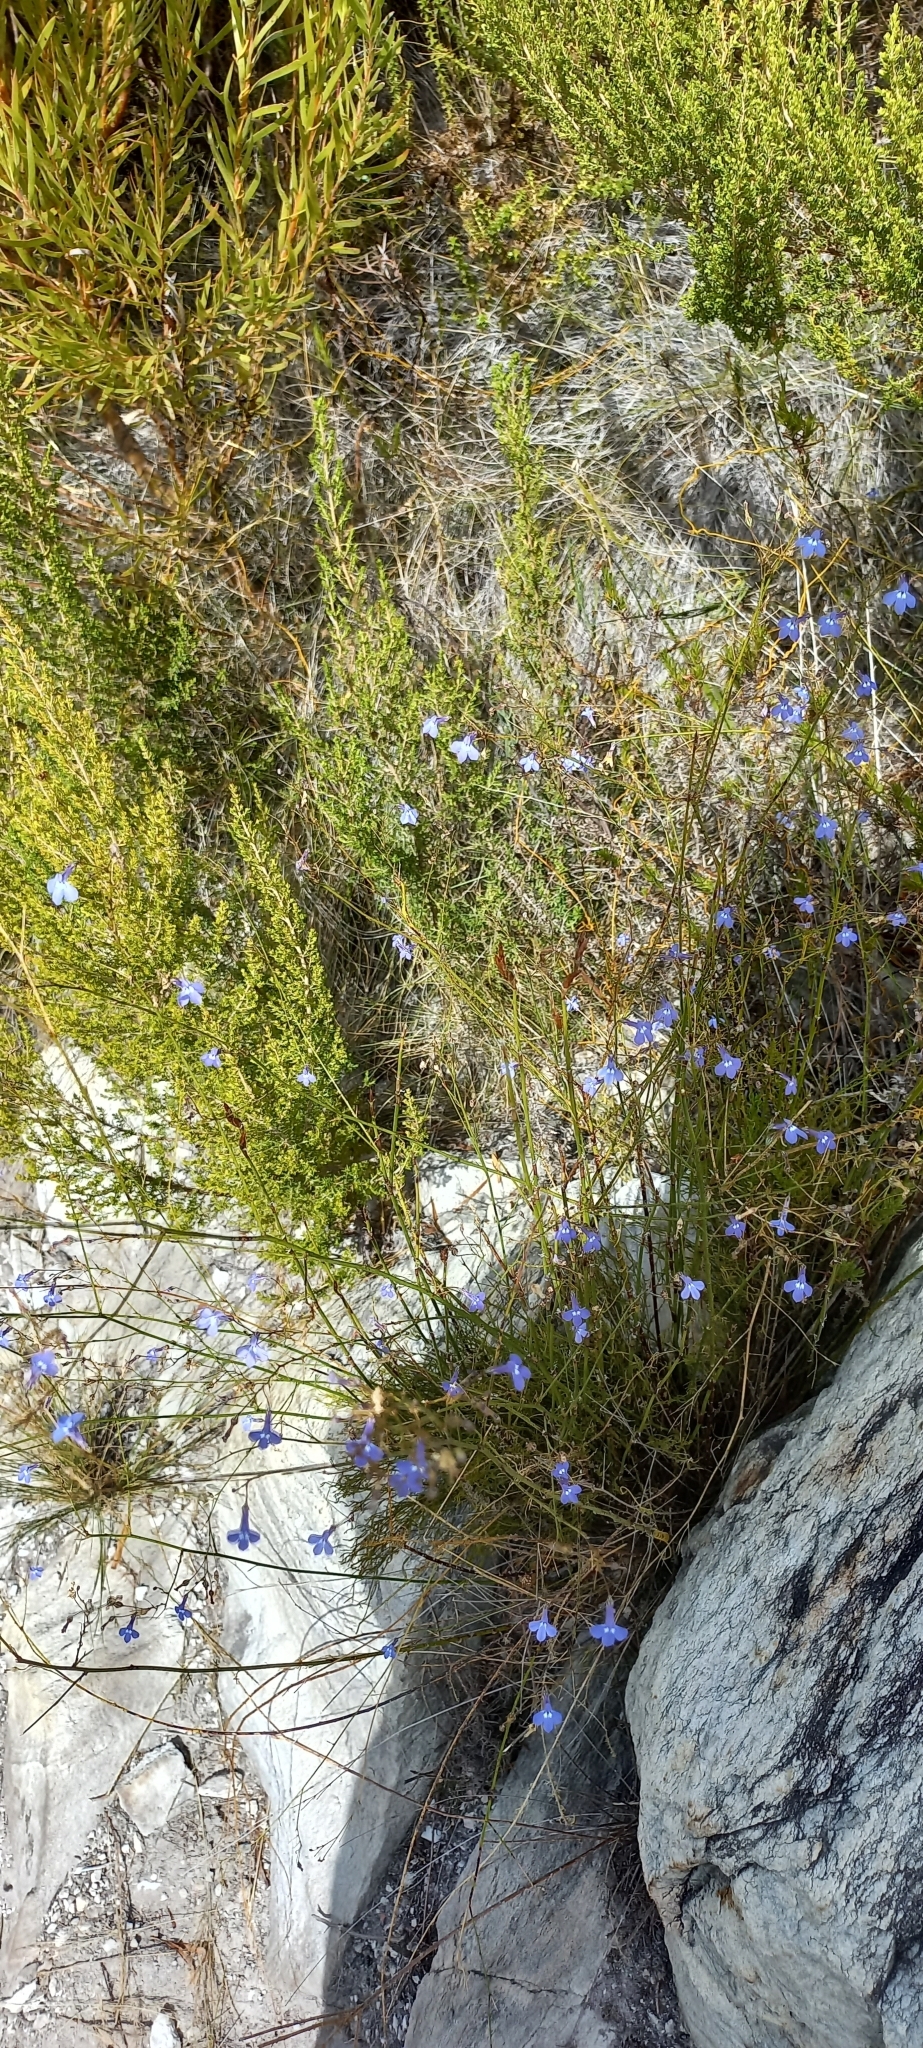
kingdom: Plantae
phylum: Tracheophyta
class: Magnoliopsida
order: Asterales
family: Campanulaceae
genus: Lobelia
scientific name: Lobelia setacea
